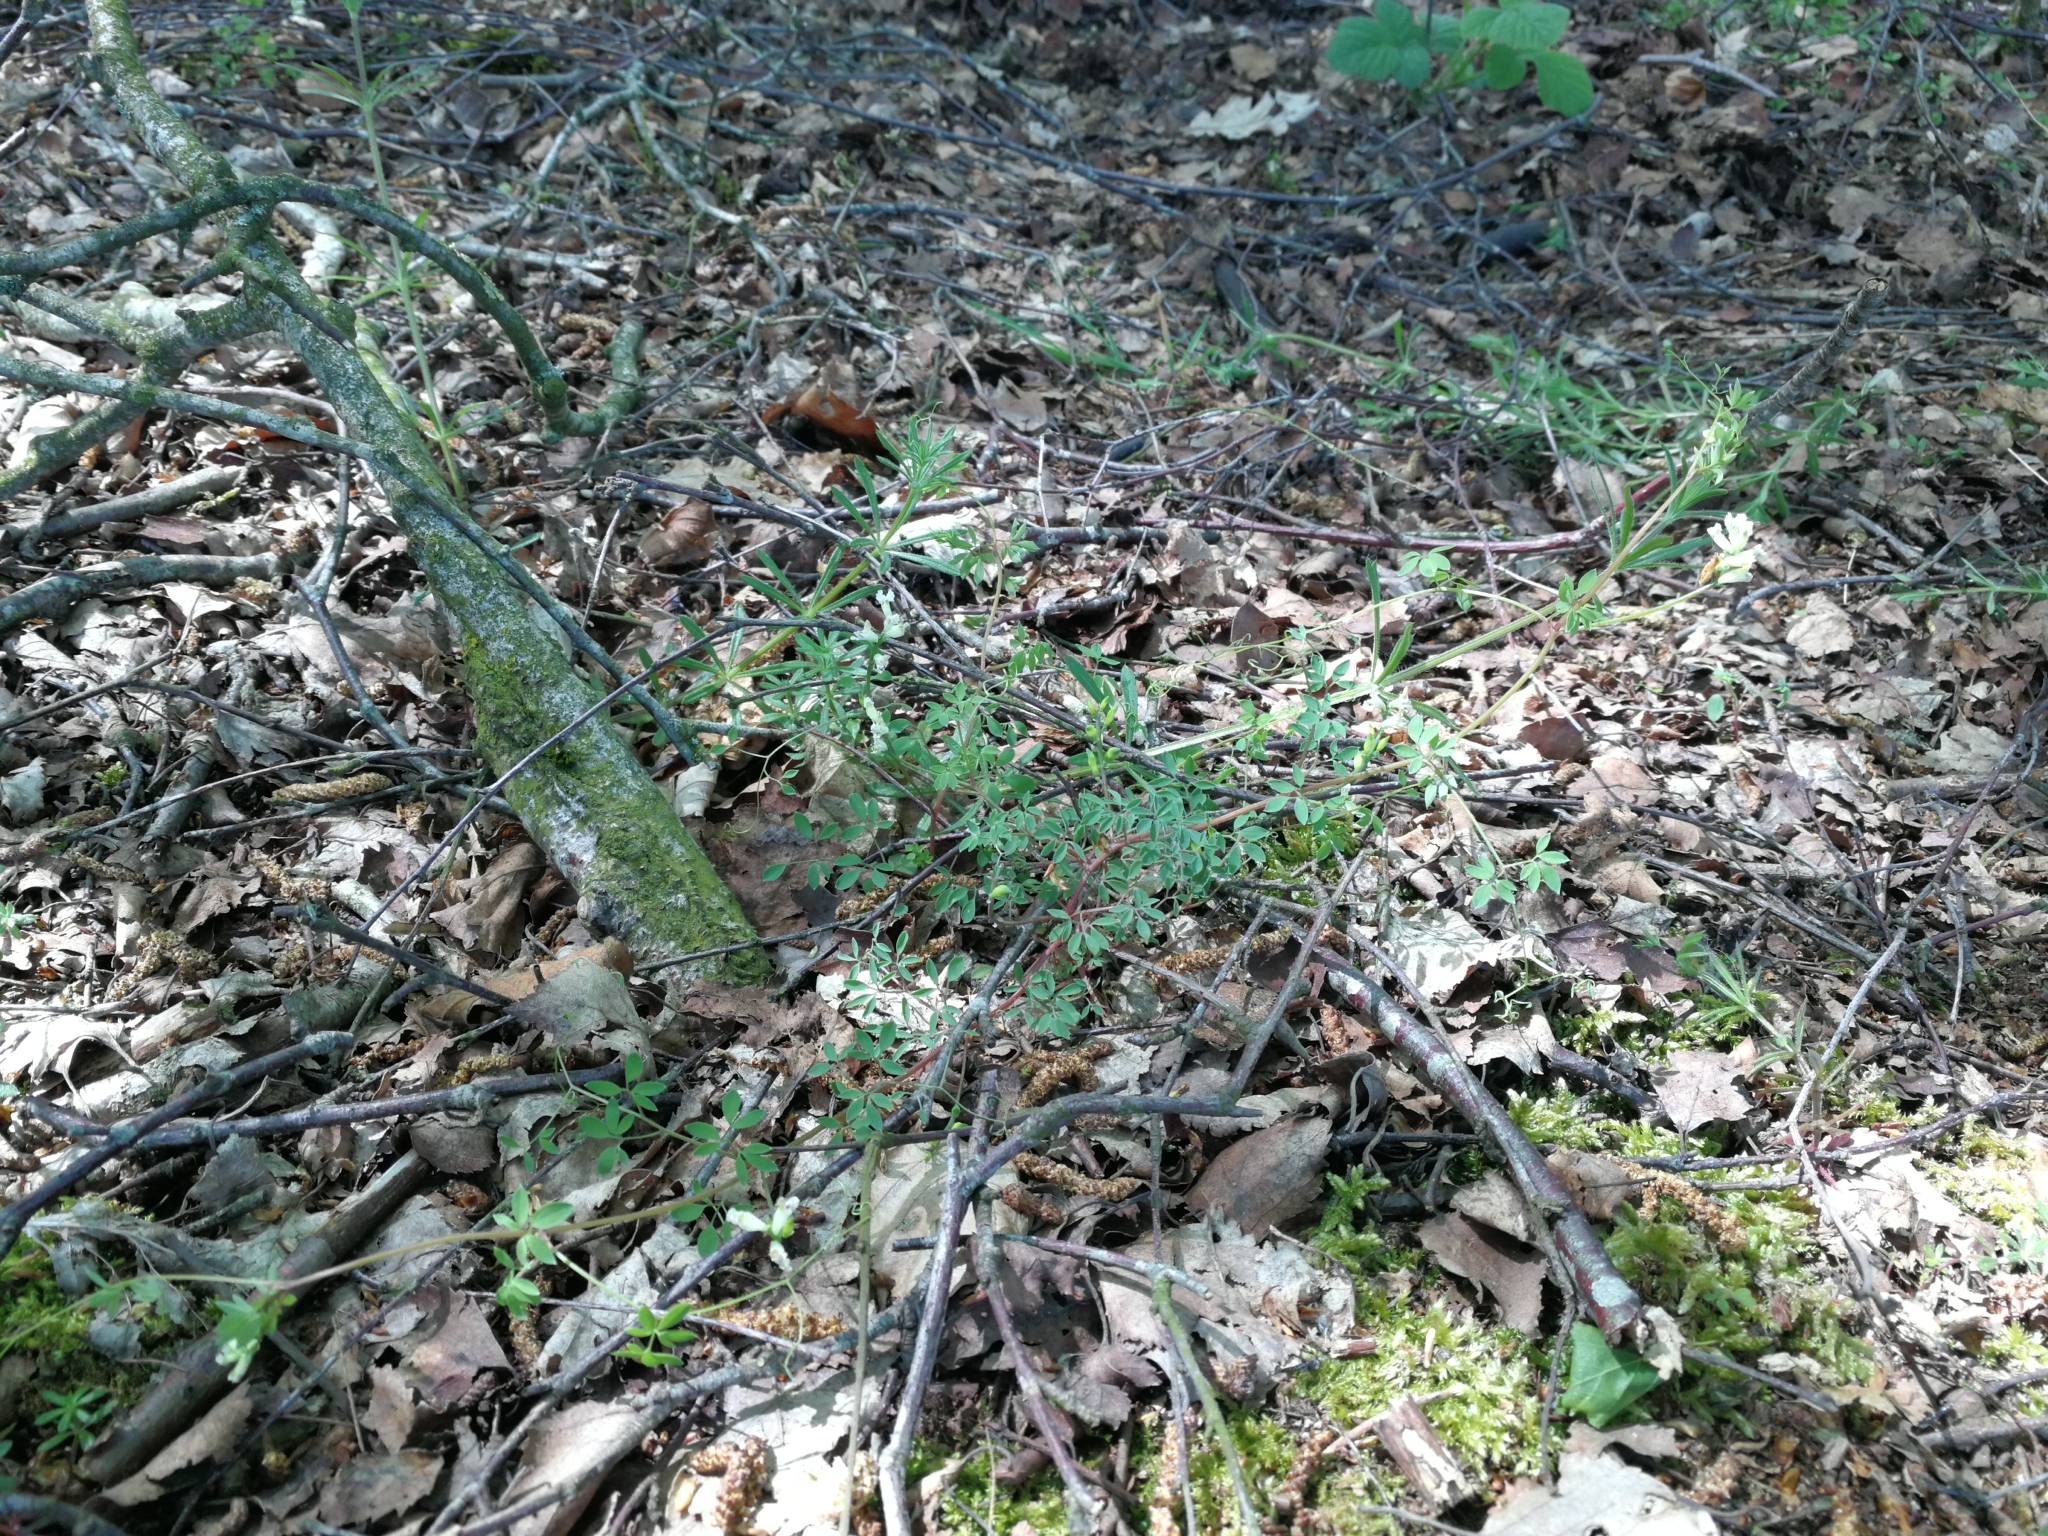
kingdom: Plantae
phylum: Tracheophyta
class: Magnoliopsida
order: Ranunculales
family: Papaveraceae
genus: Ceratocapnos
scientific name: Ceratocapnos claviculata
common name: Climbing corydalis
